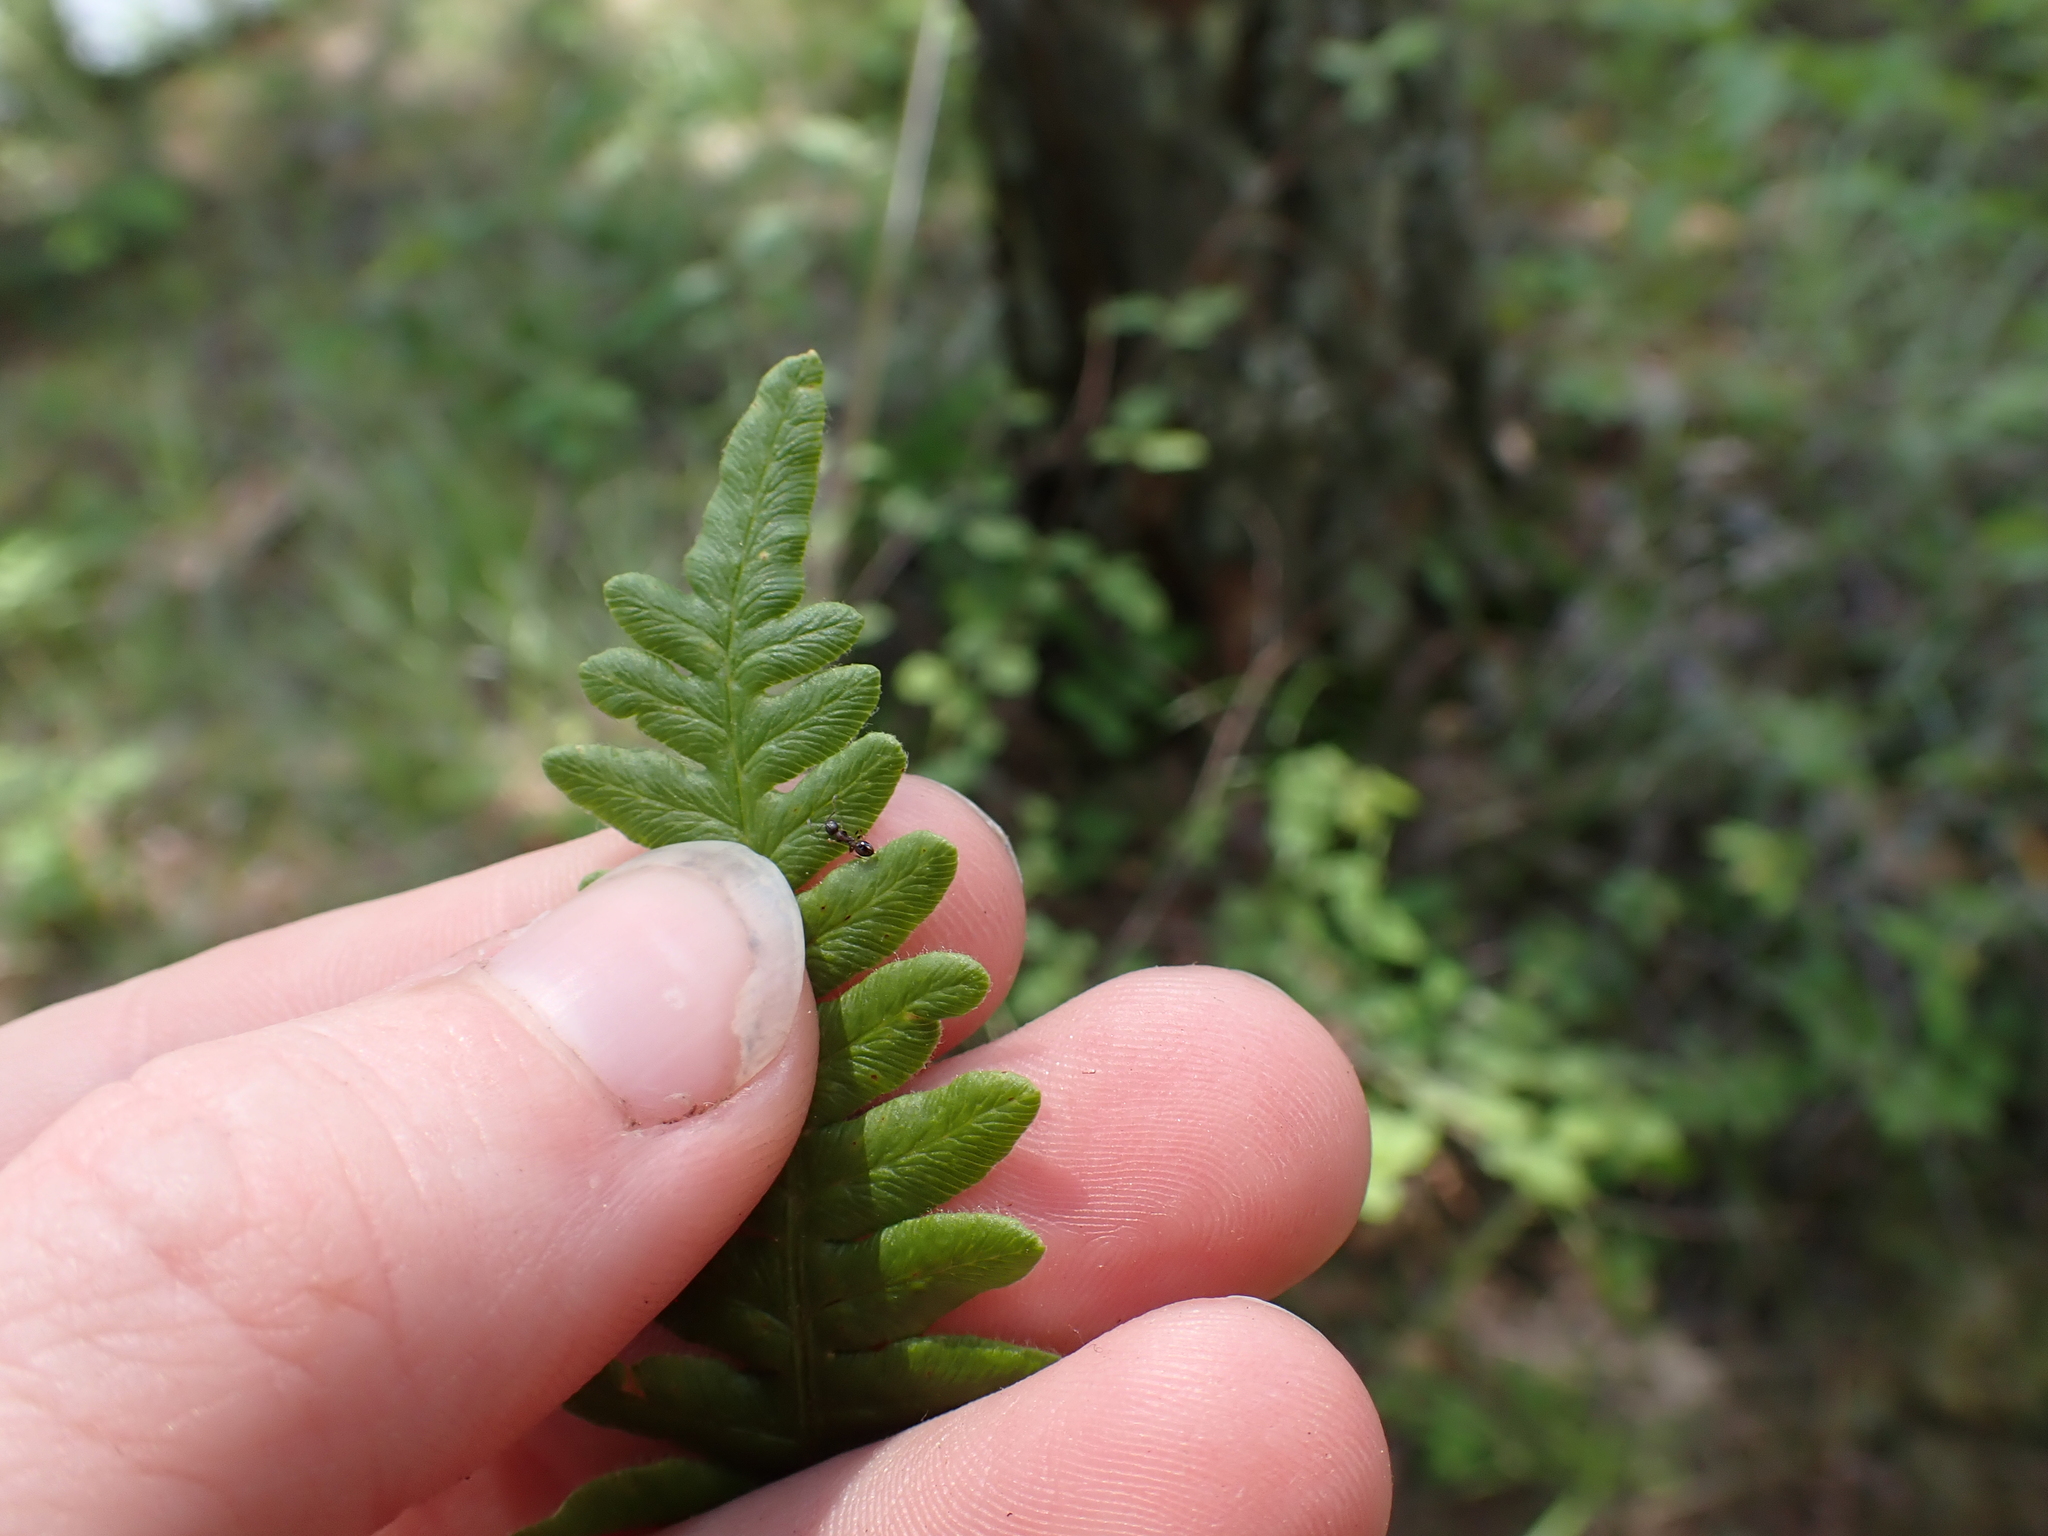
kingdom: Plantae
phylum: Tracheophyta
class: Polypodiopsida
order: Polypodiales
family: Dennstaedtiaceae
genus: Pteridium
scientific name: Pteridium aquilinum
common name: Bracken
